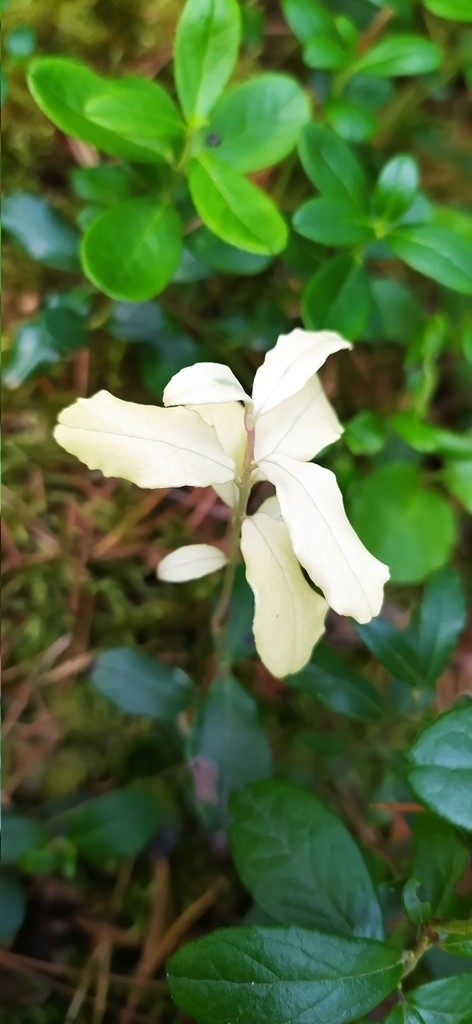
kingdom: Plantae
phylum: Tracheophyta
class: Magnoliopsida
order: Ericales
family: Ericaceae
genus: Vaccinium
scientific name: Vaccinium vitis-idaea
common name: Cowberry
